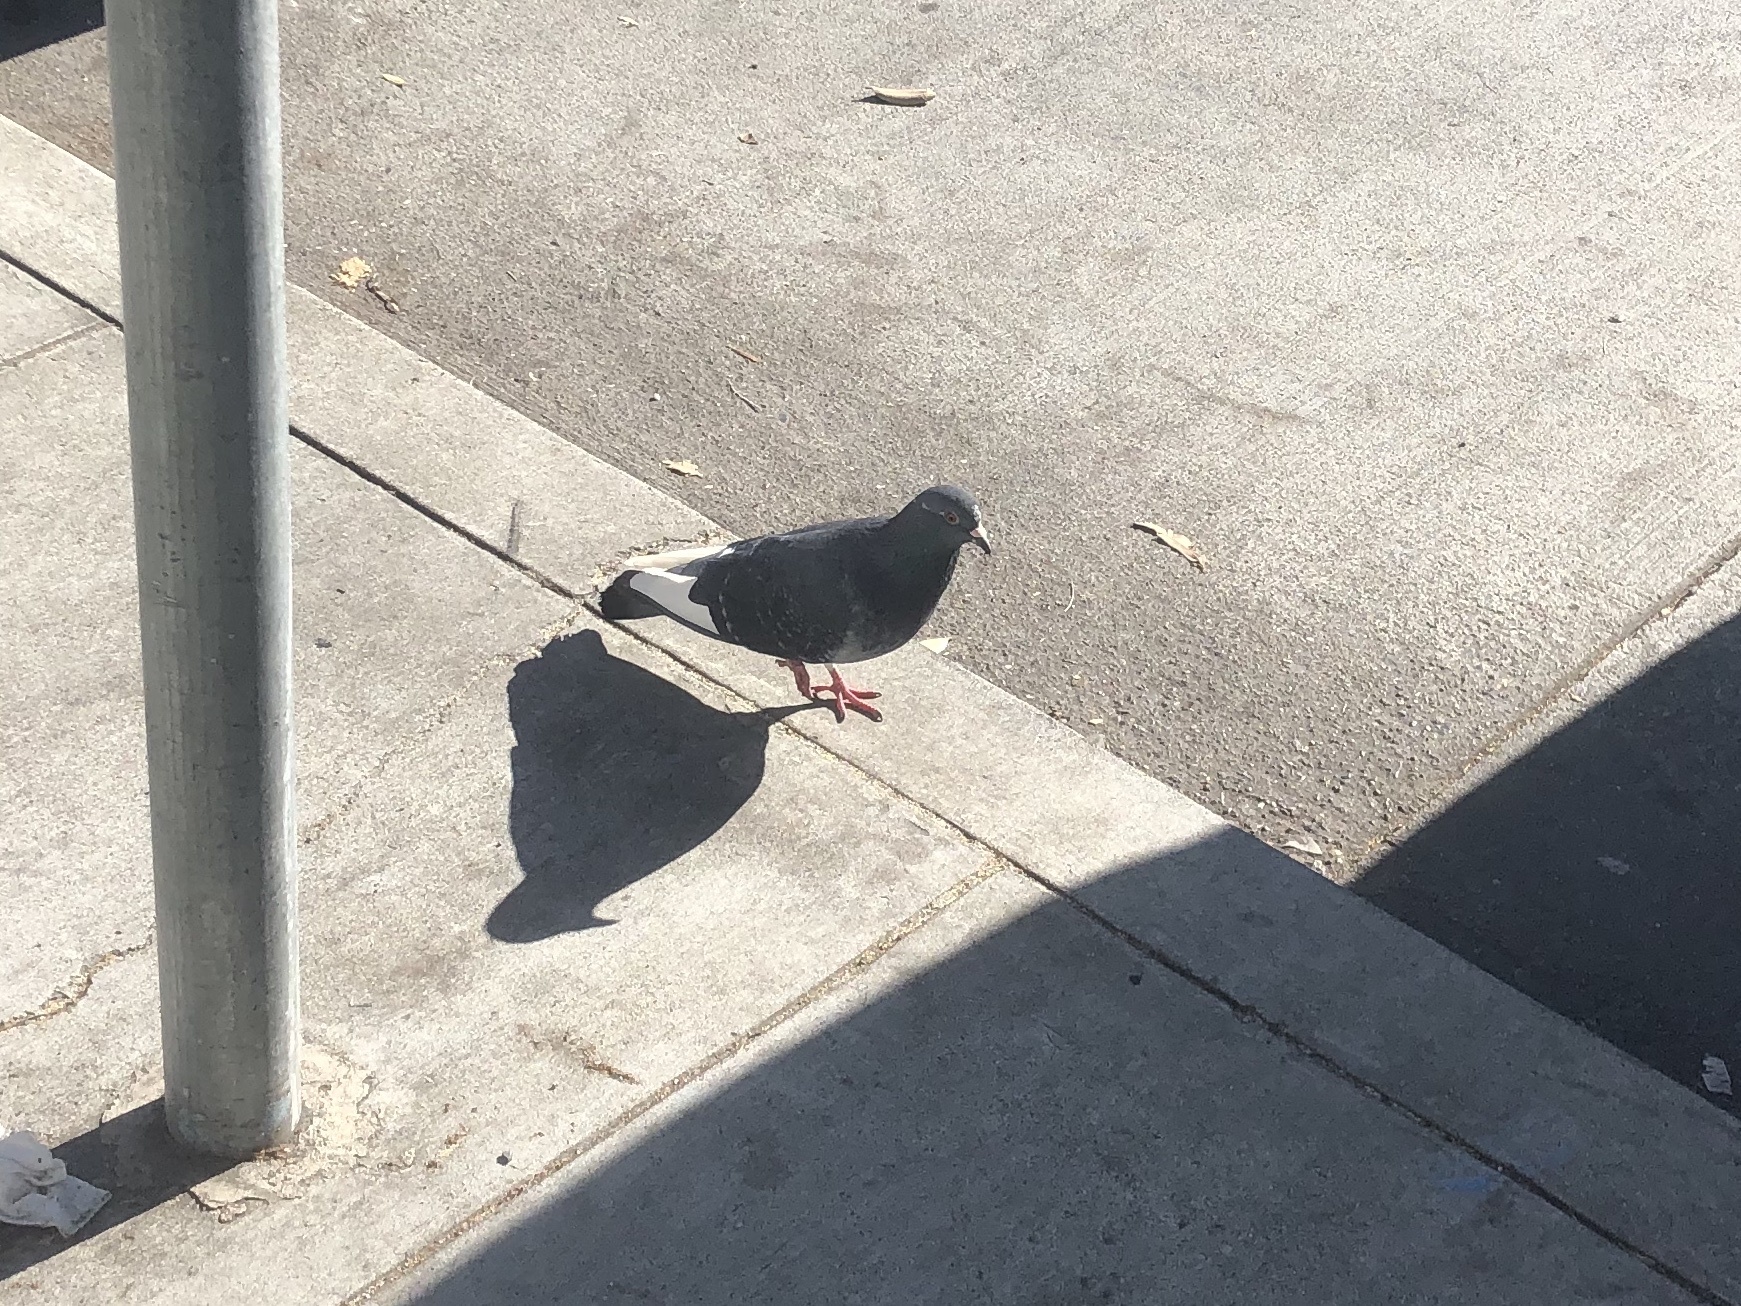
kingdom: Animalia
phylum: Chordata
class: Aves
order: Columbiformes
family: Columbidae
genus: Columba
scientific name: Columba livia
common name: Rock pigeon
